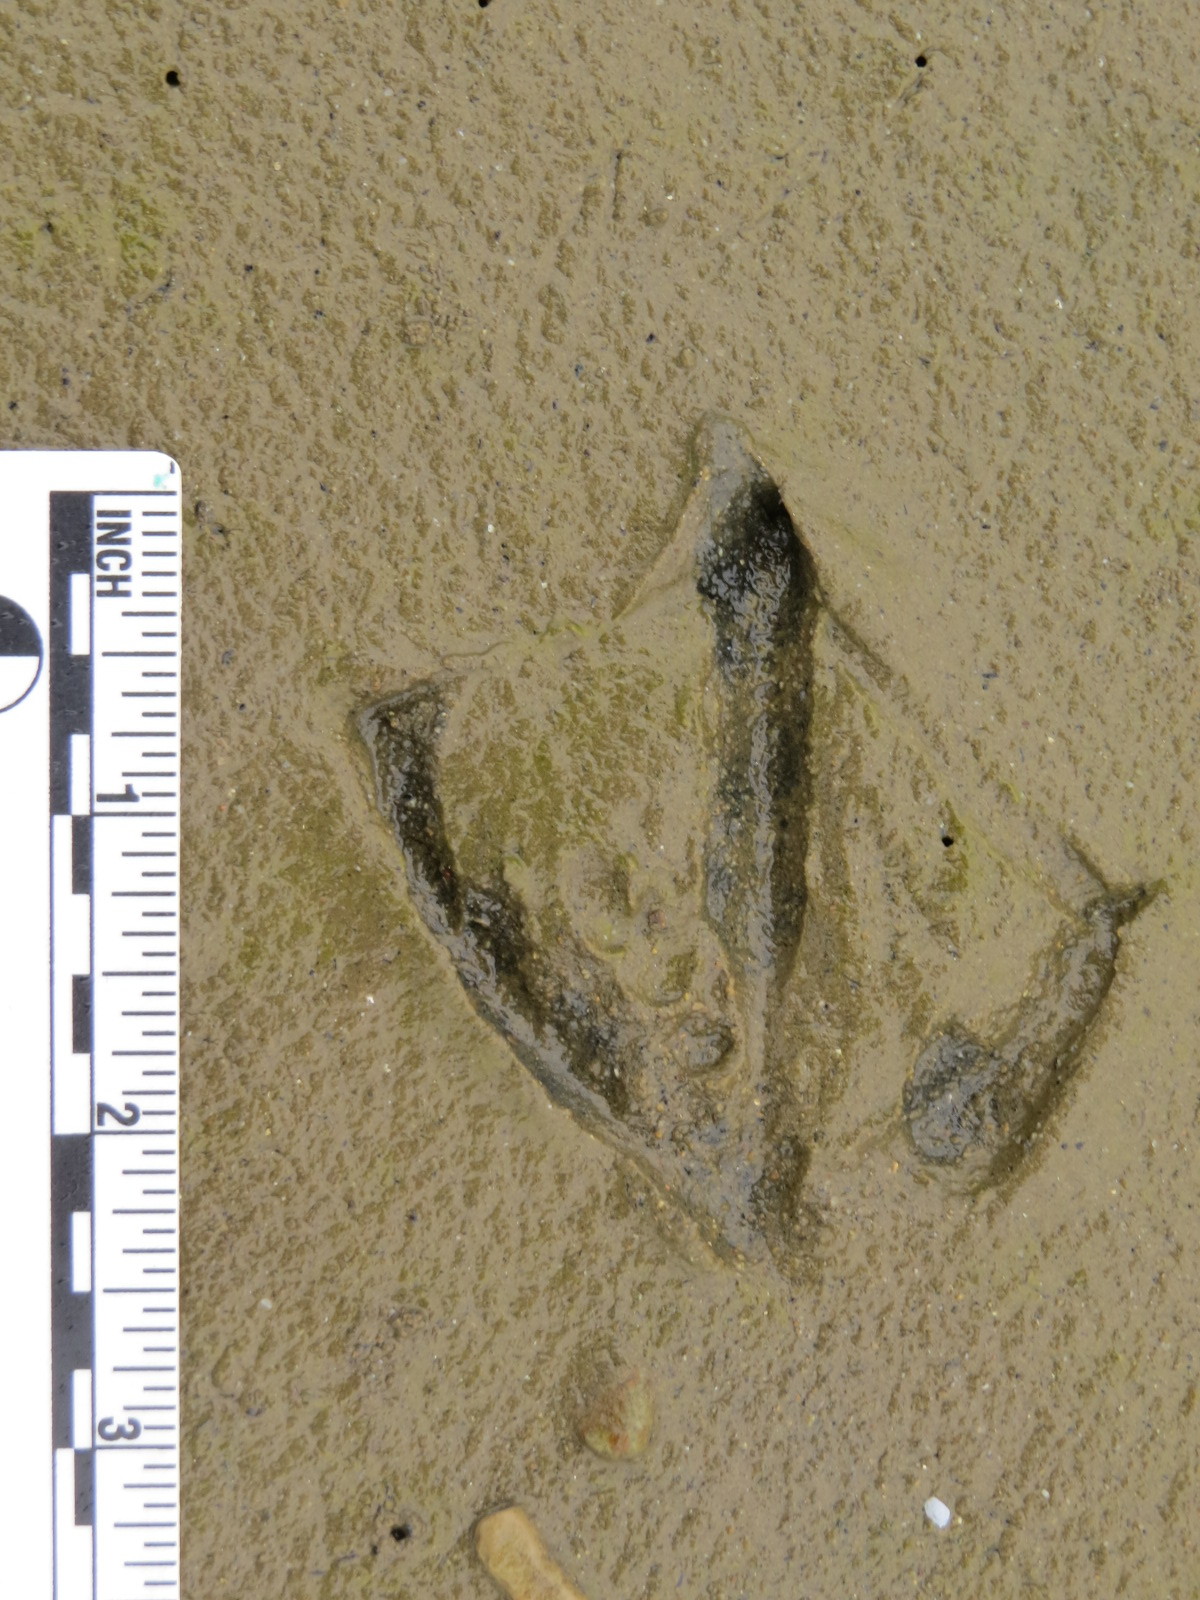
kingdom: Animalia
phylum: Chordata
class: Aves
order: Charadriiformes
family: Laridae
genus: Larus
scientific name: Larus occidentalis
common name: Western gull
